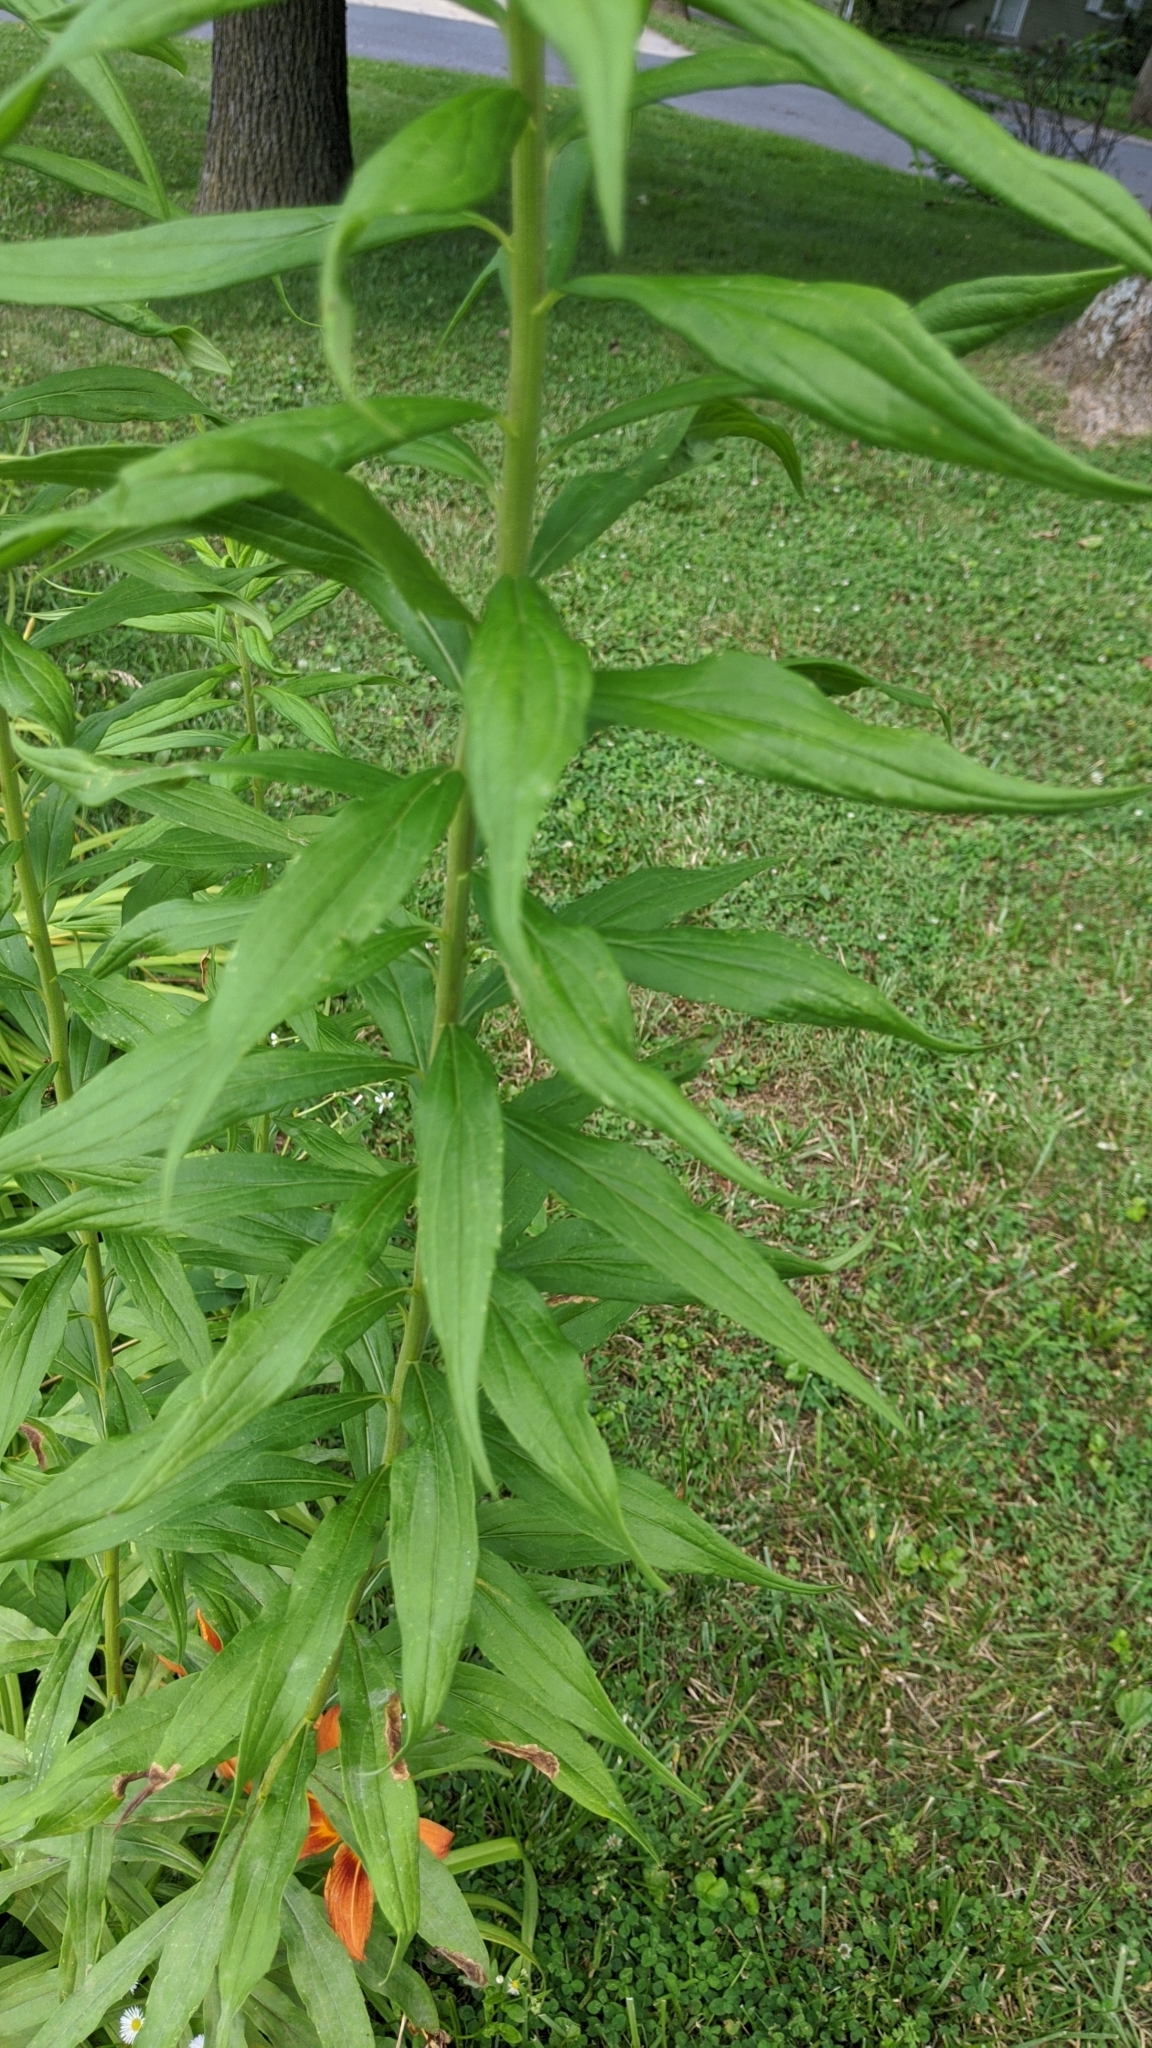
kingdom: Plantae
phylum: Tracheophyta
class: Magnoliopsida
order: Asterales
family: Asteraceae
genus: Solidago
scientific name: Solidago altissima
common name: Late goldenrod
